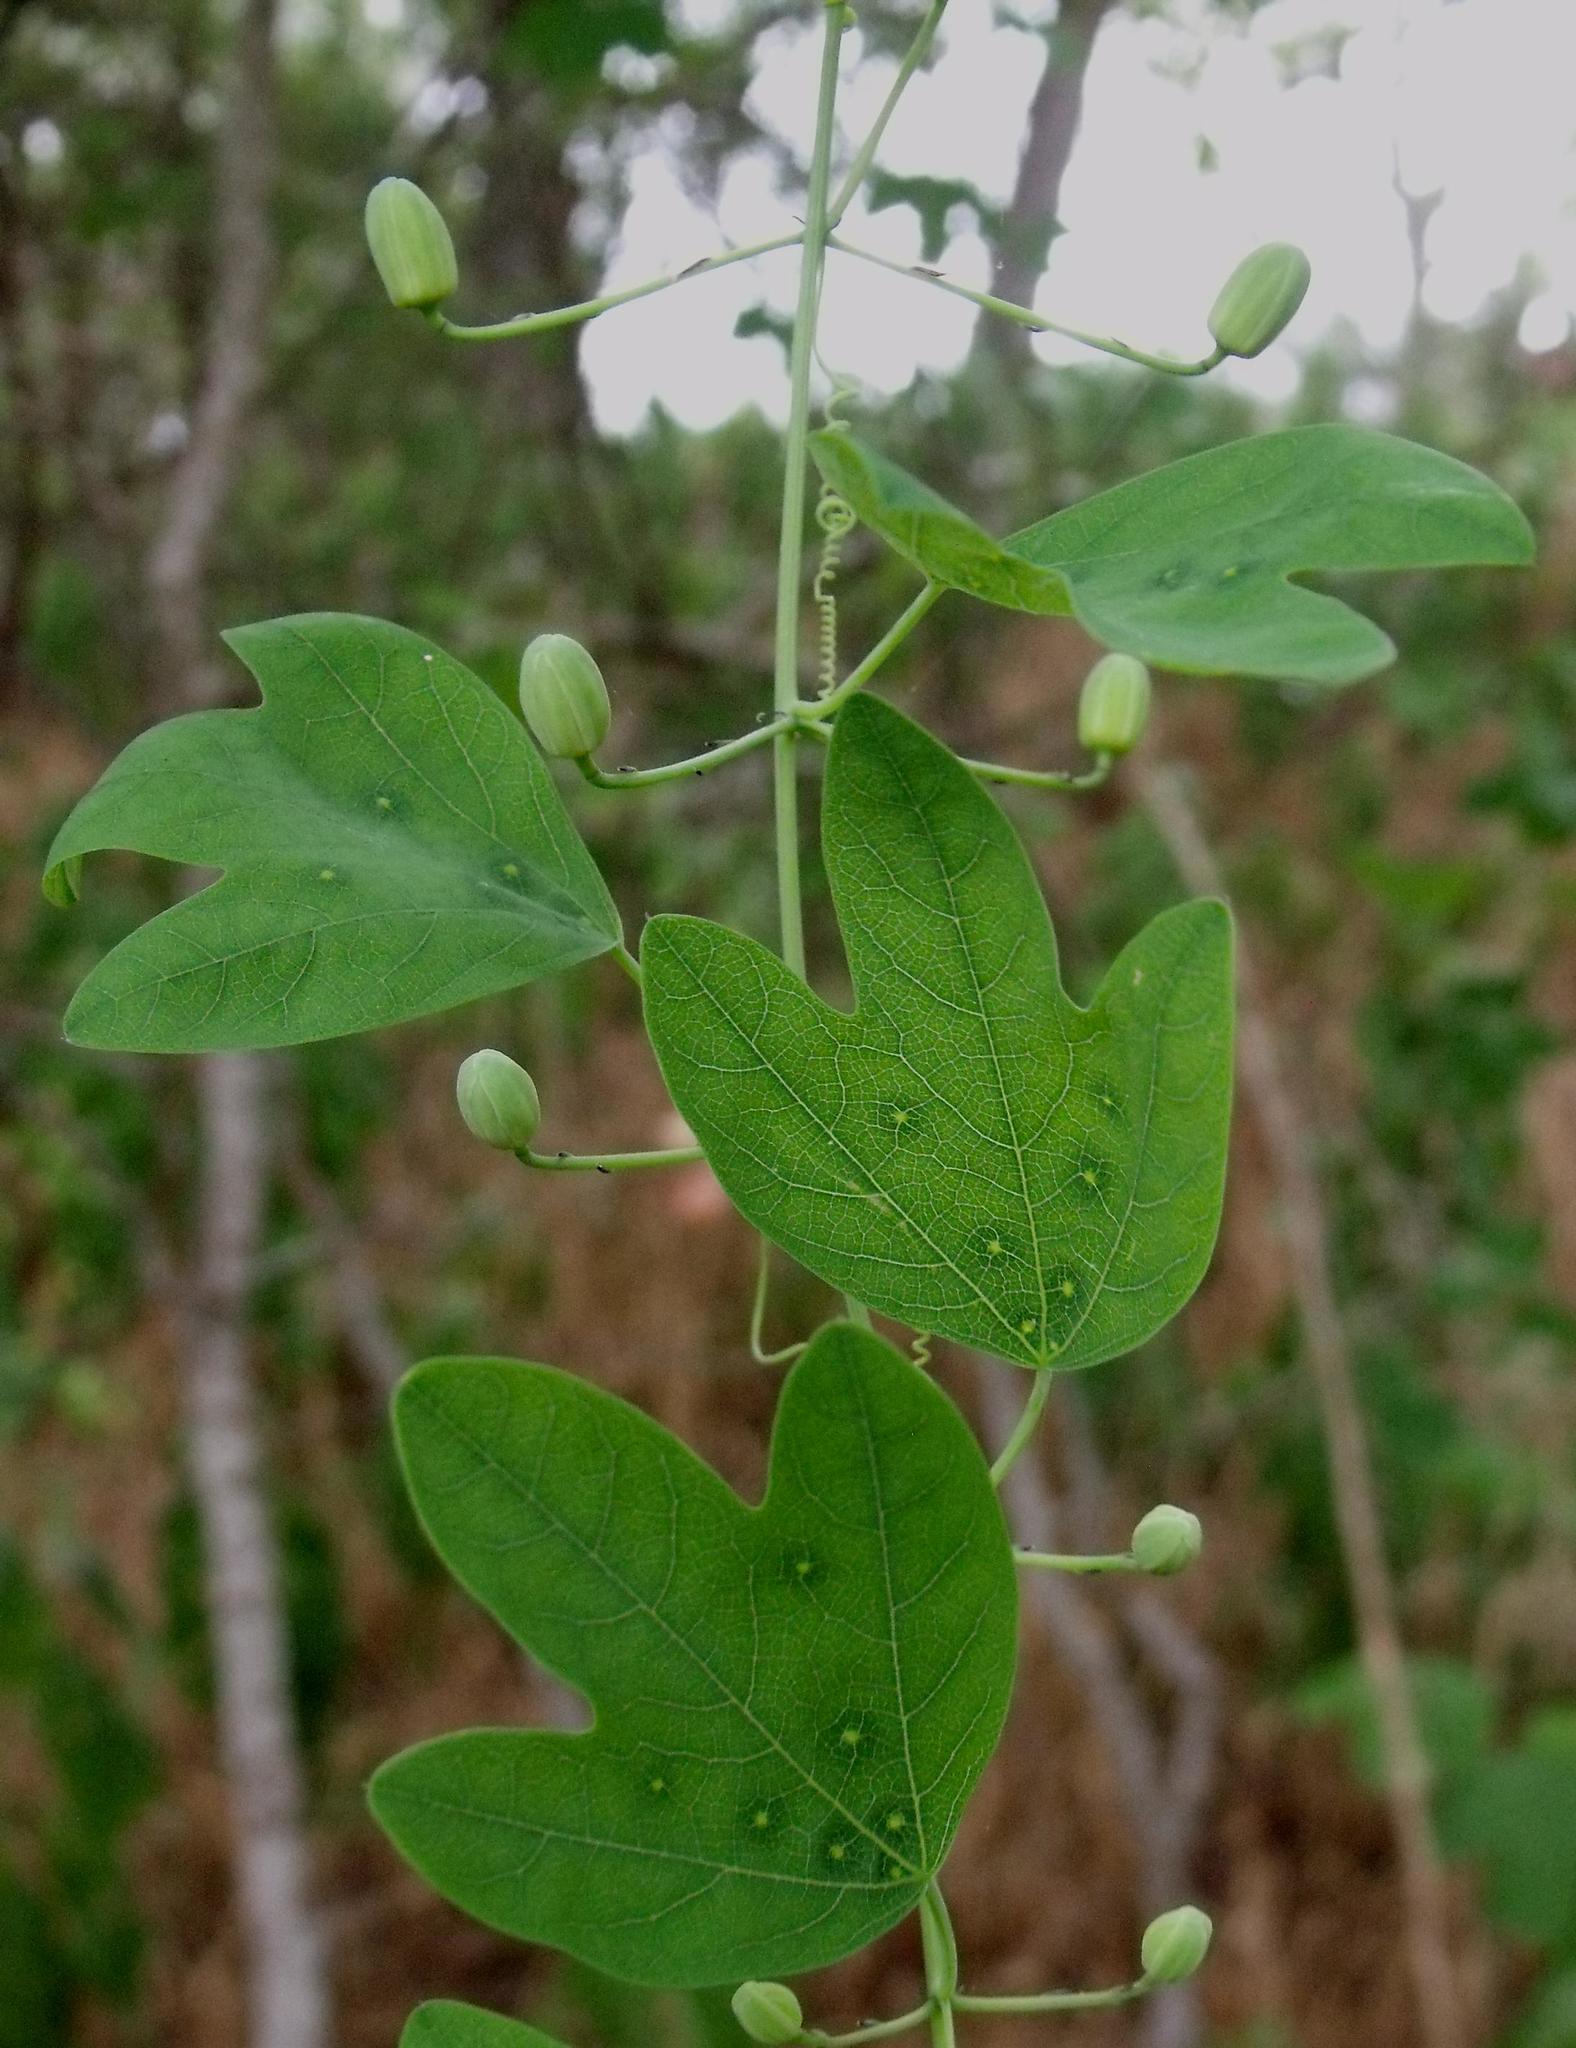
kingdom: Plantae
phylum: Tracheophyta
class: Magnoliopsida
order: Malpighiales
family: Passifloraceae
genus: Passiflora
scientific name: Passiflora affinis
